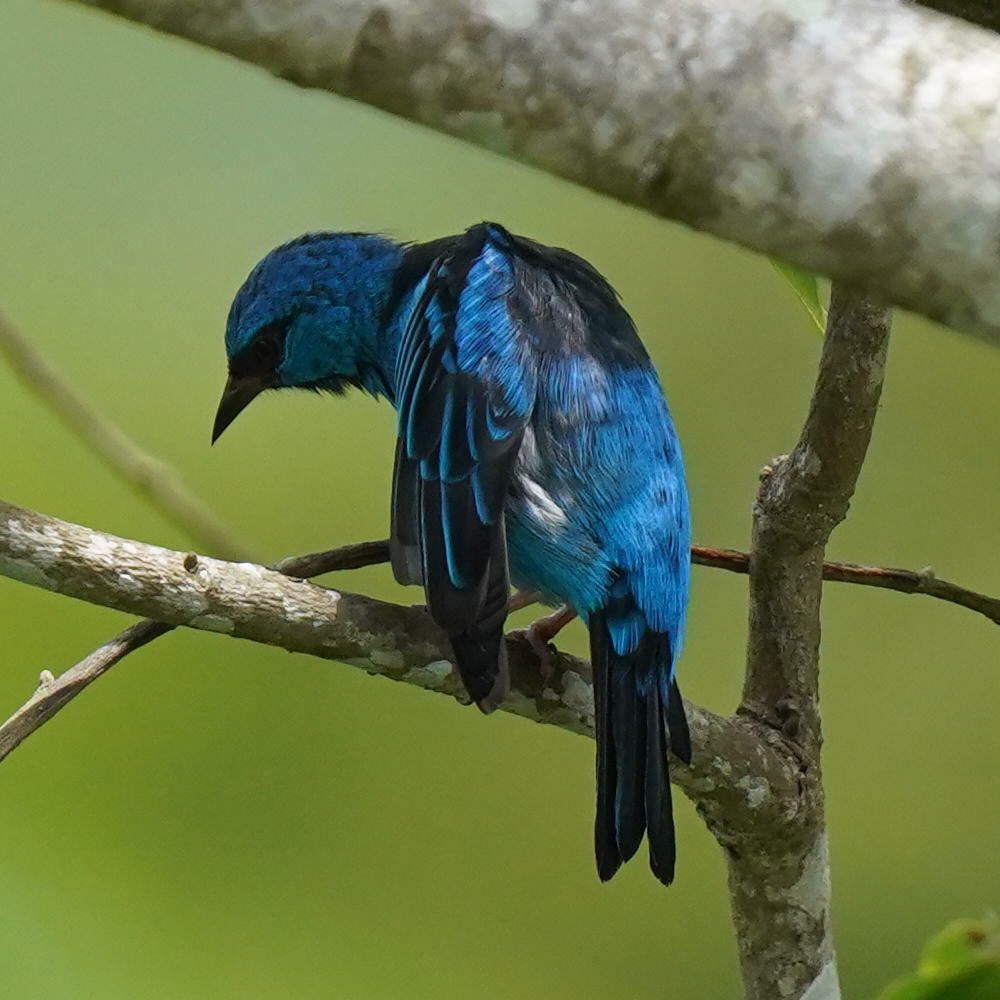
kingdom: Animalia
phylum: Chordata
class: Aves
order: Passeriformes
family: Thraupidae
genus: Dacnis
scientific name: Dacnis cayana
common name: Blue dacnis
